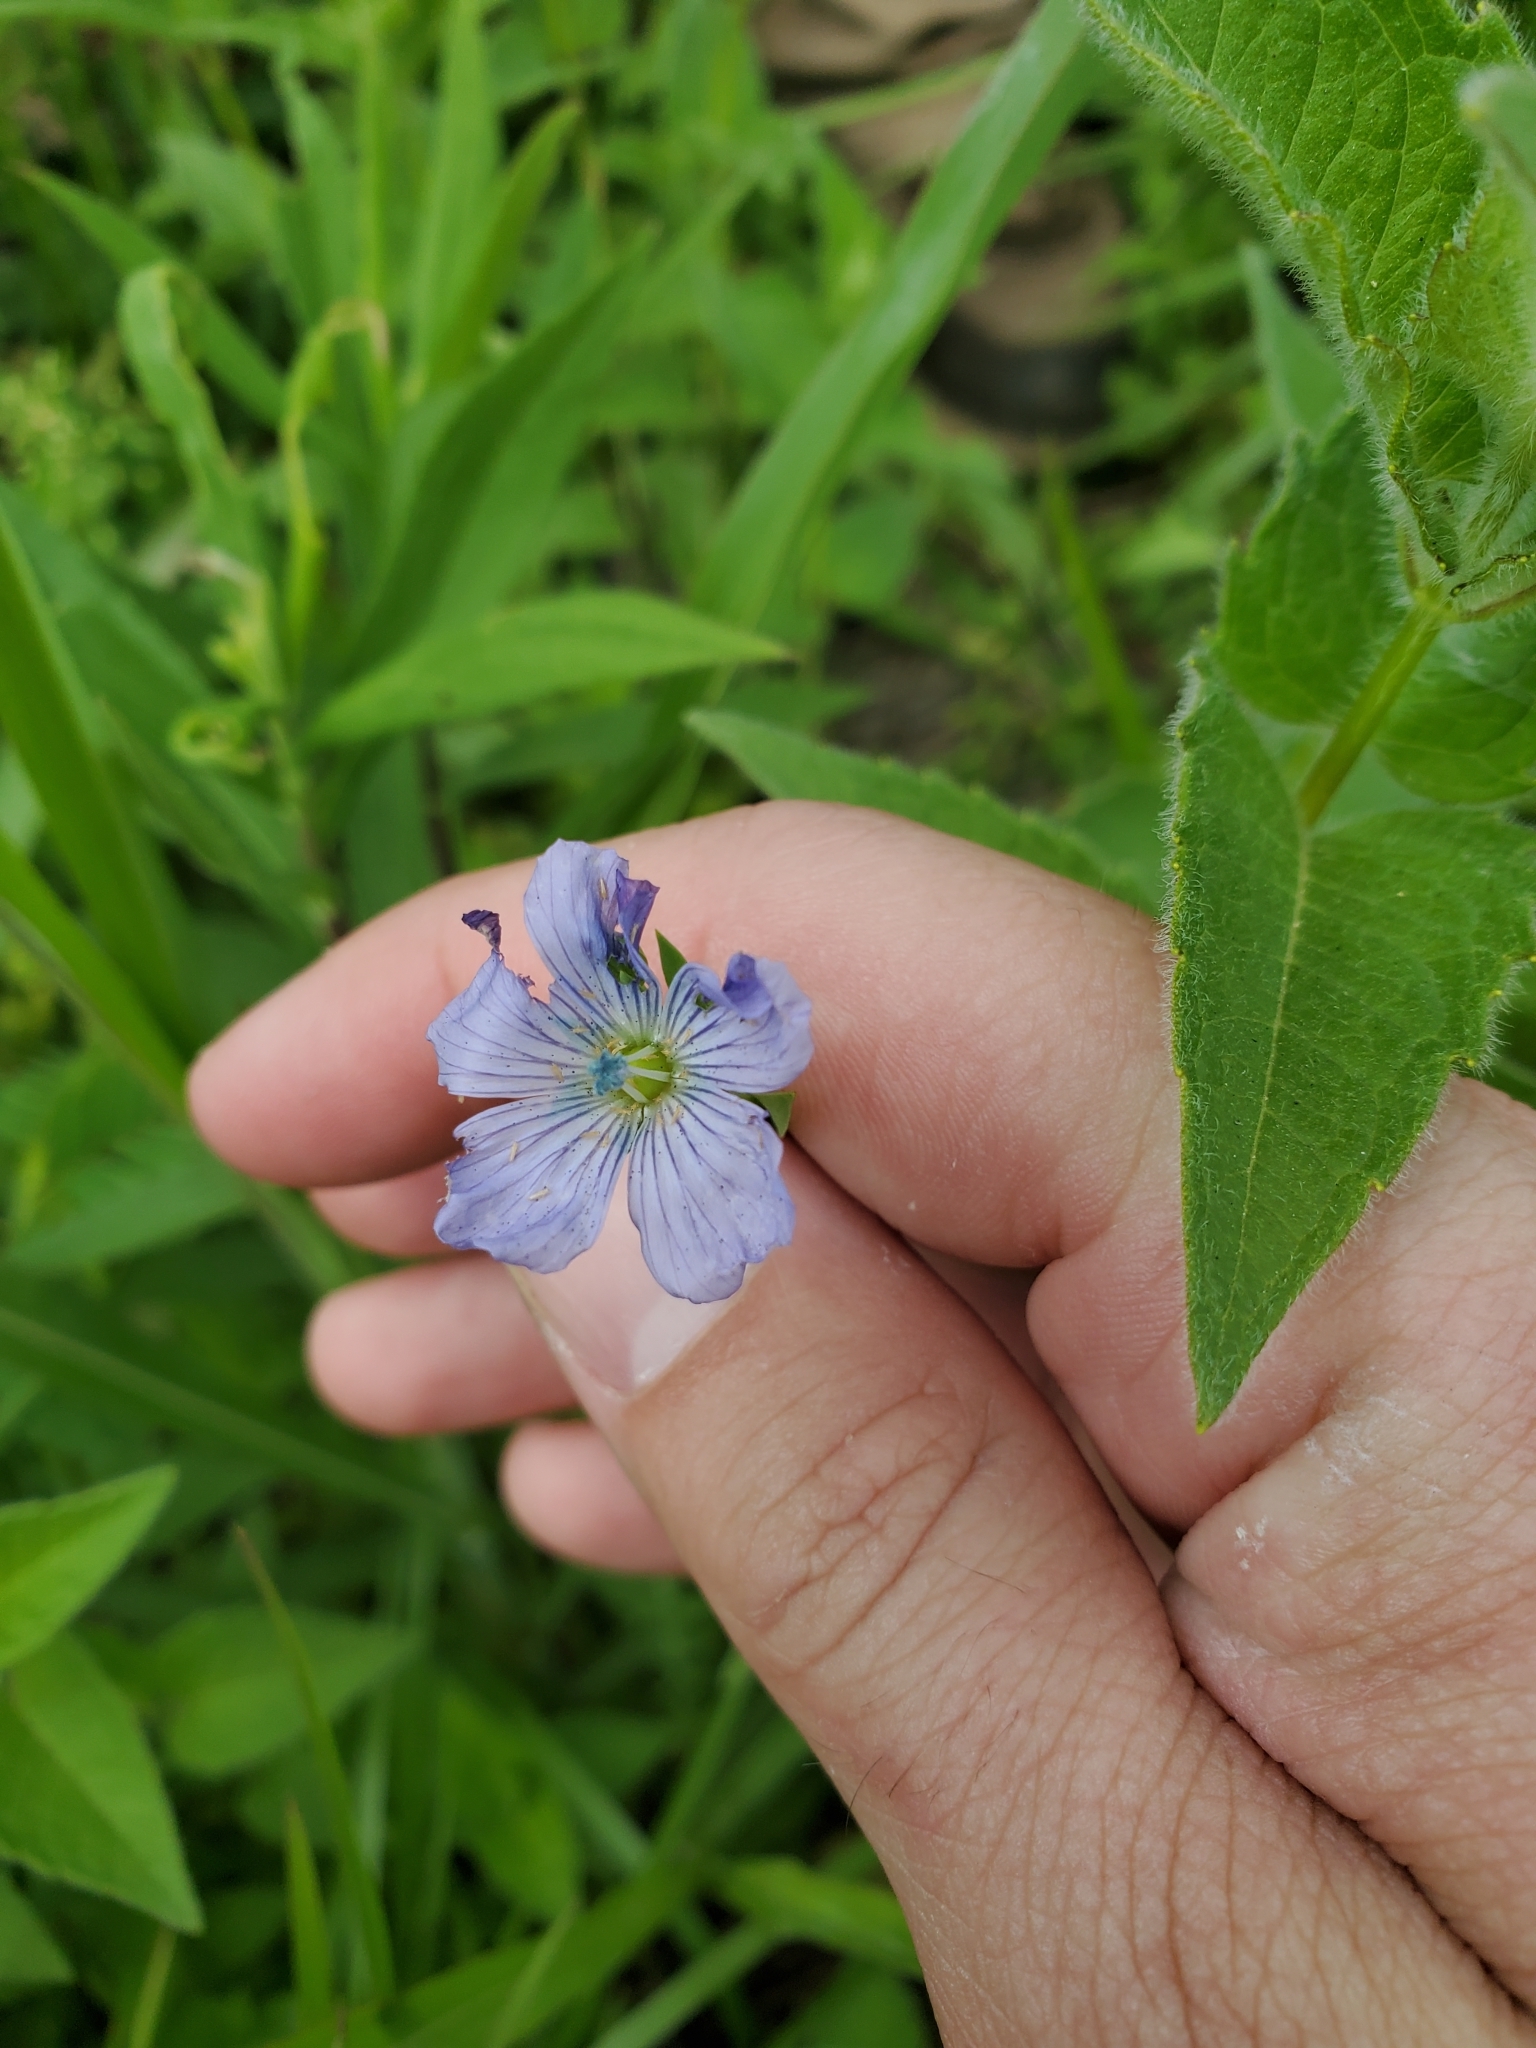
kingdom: Plantae
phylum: Tracheophyta
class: Magnoliopsida
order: Malpighiales
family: Linaceae
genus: Linum
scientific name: Linum usitatissimum
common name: Flax
